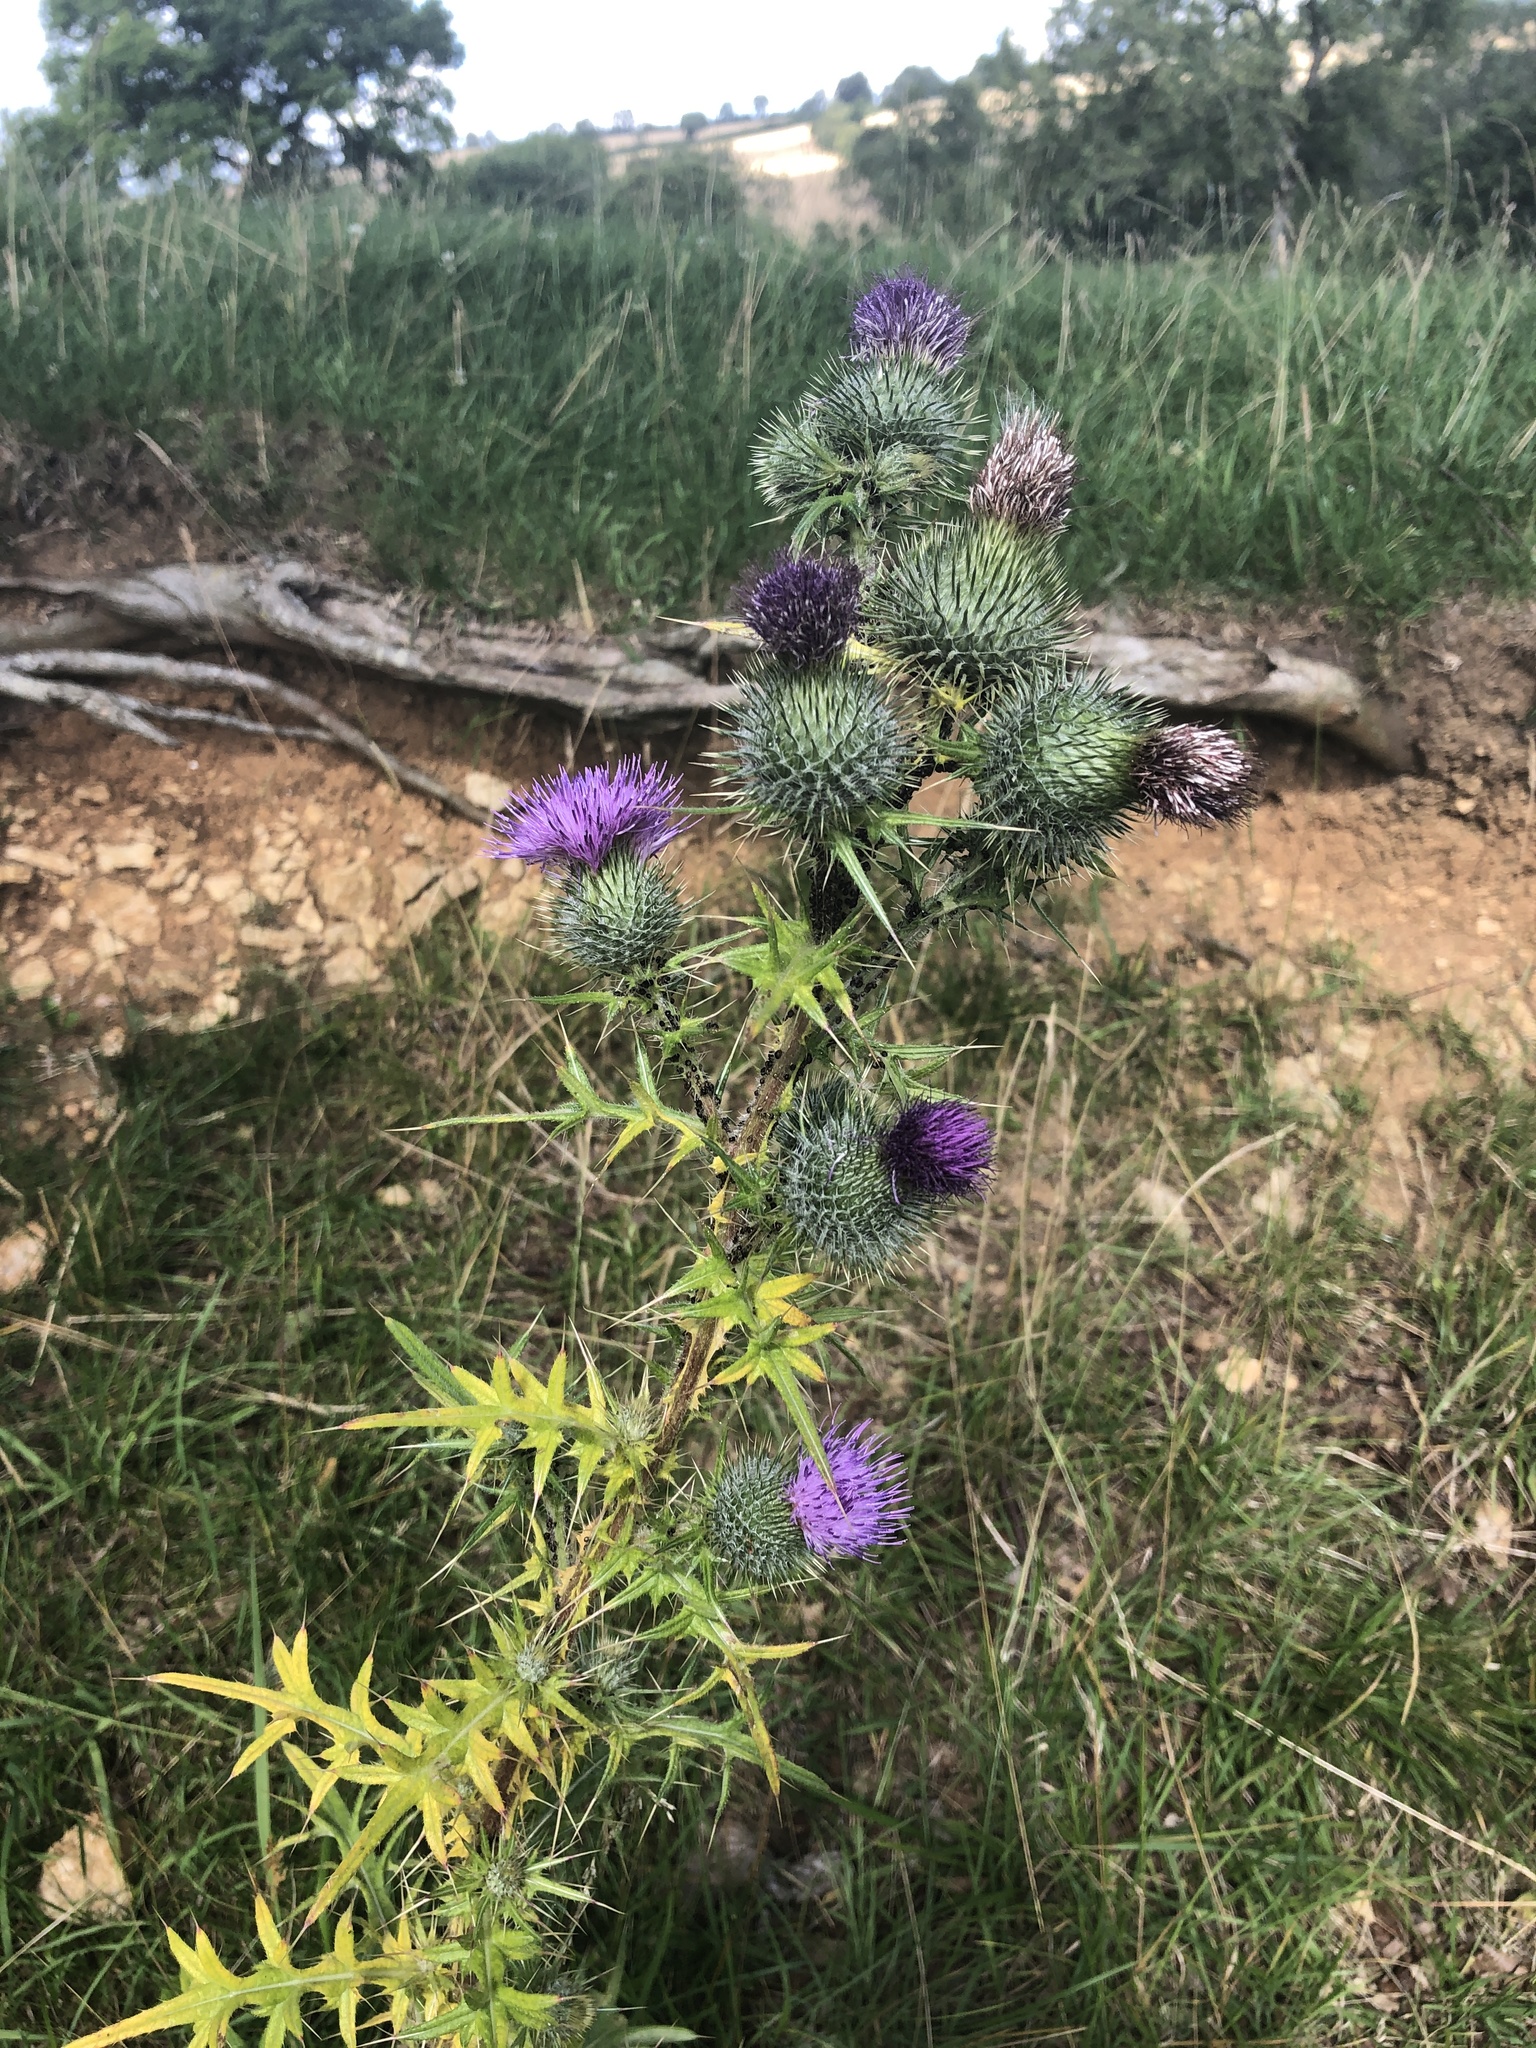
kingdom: Plantae
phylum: Tracheophyta
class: Magnoliopsida
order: Asterales
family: Asteraceae
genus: Cirsium
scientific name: Cirsium vulgare
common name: Bull thistle
